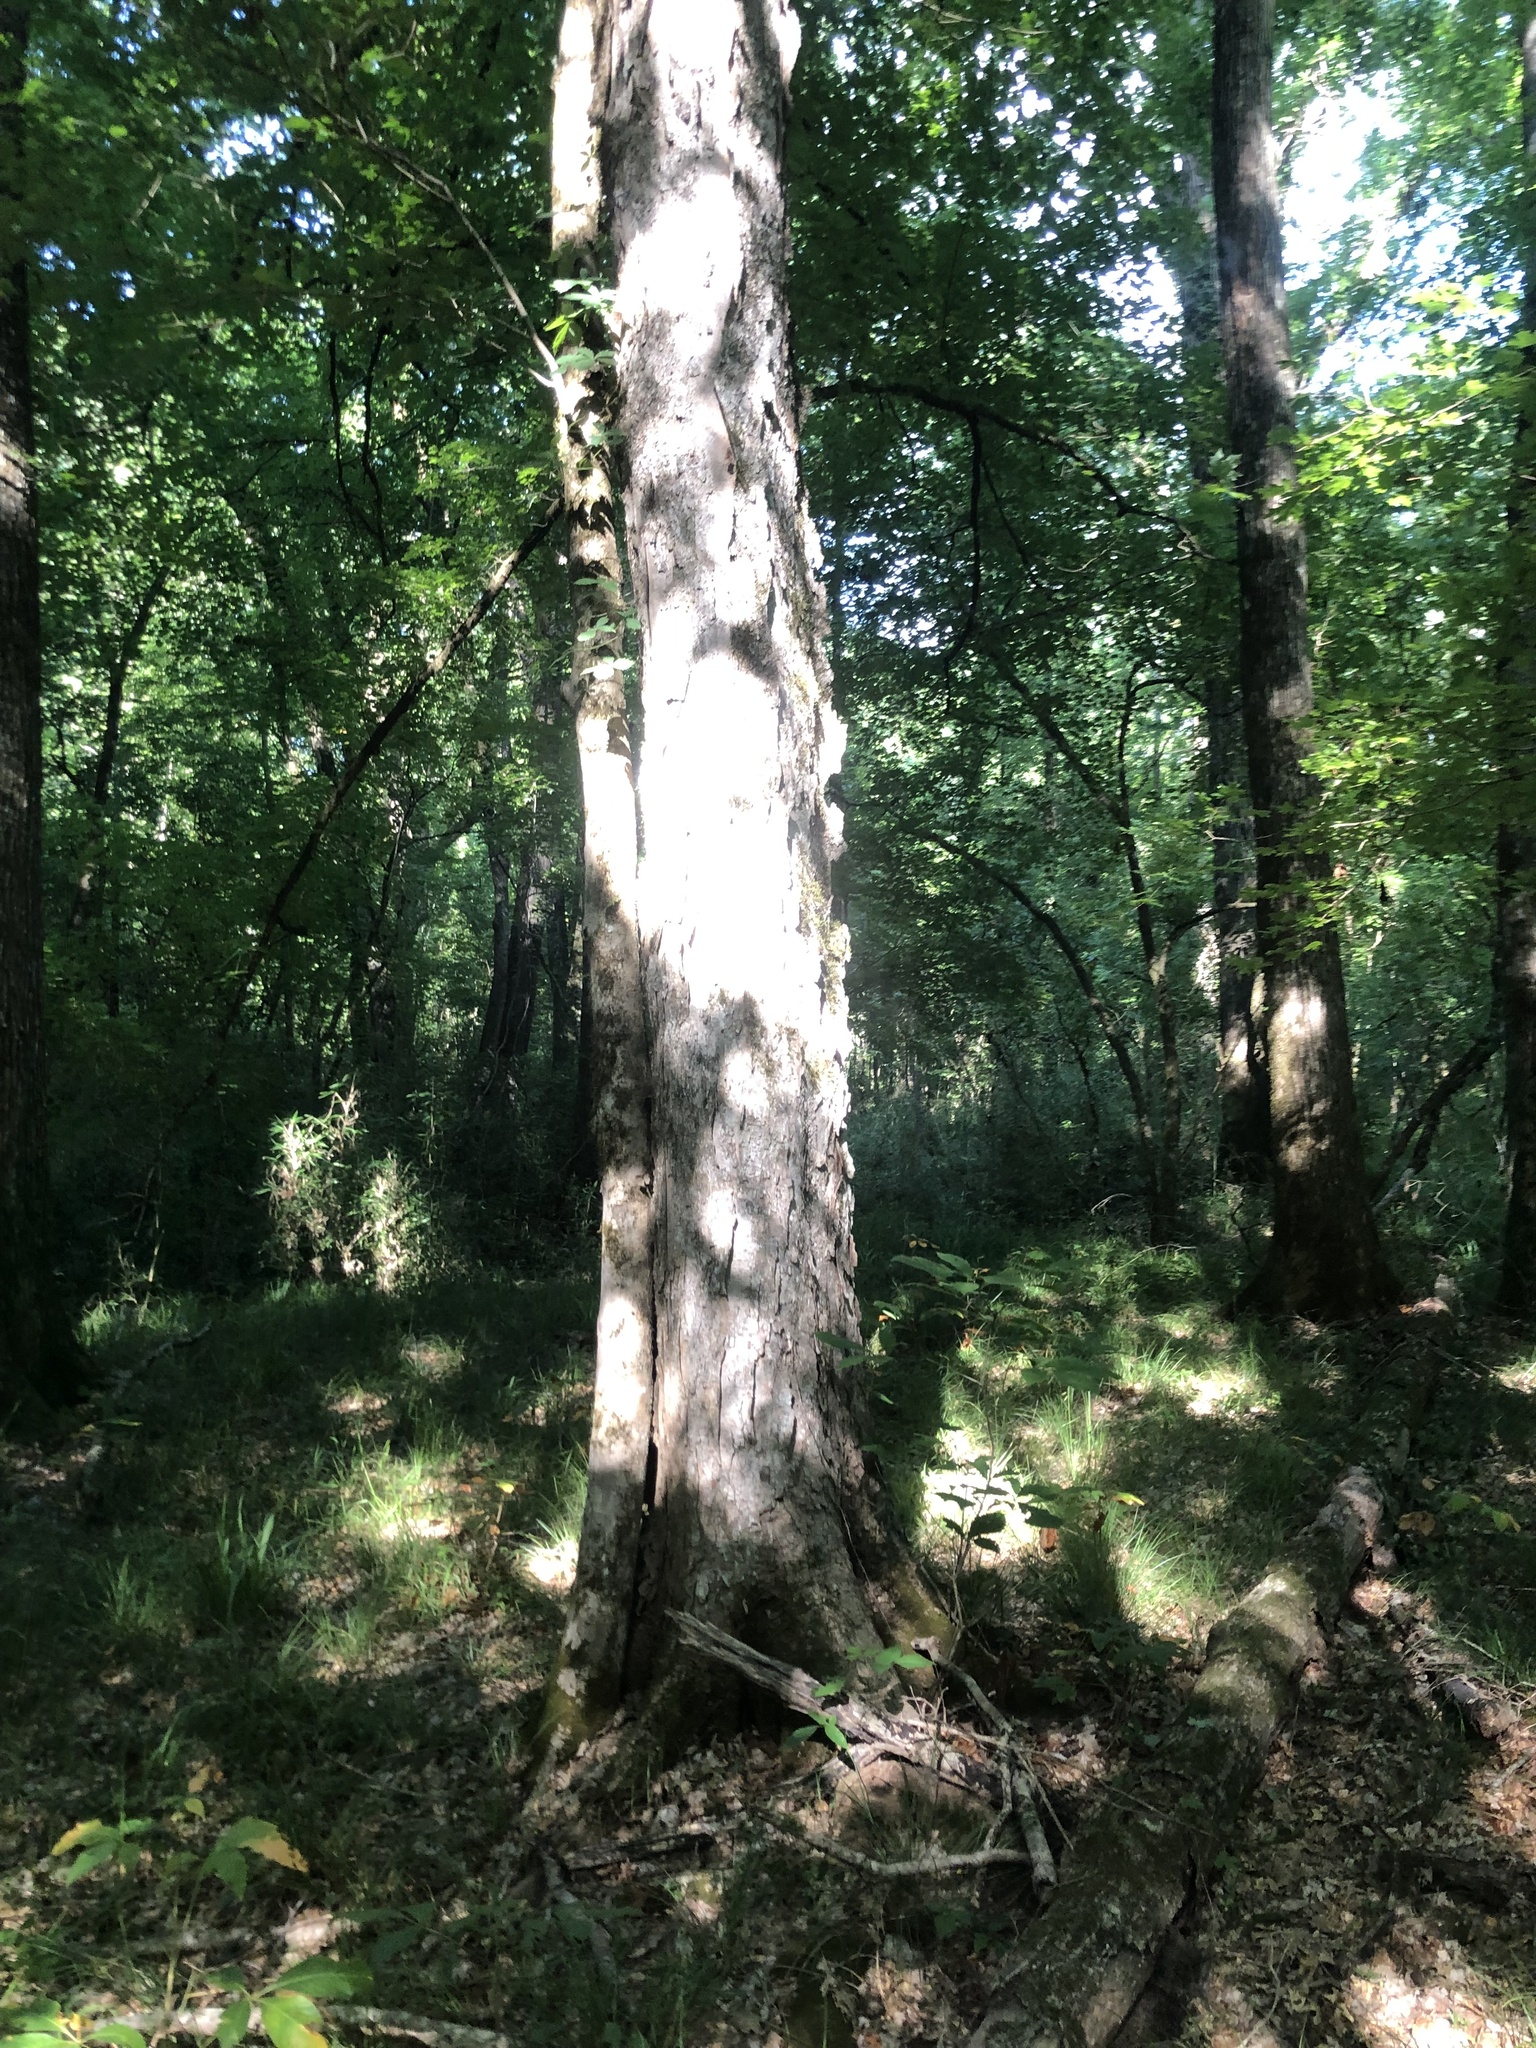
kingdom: Plantae
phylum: Tracheophyta
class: Magnoliopsida
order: Sapindales
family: Sapindaceae
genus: Acer
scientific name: Acer floridanum
